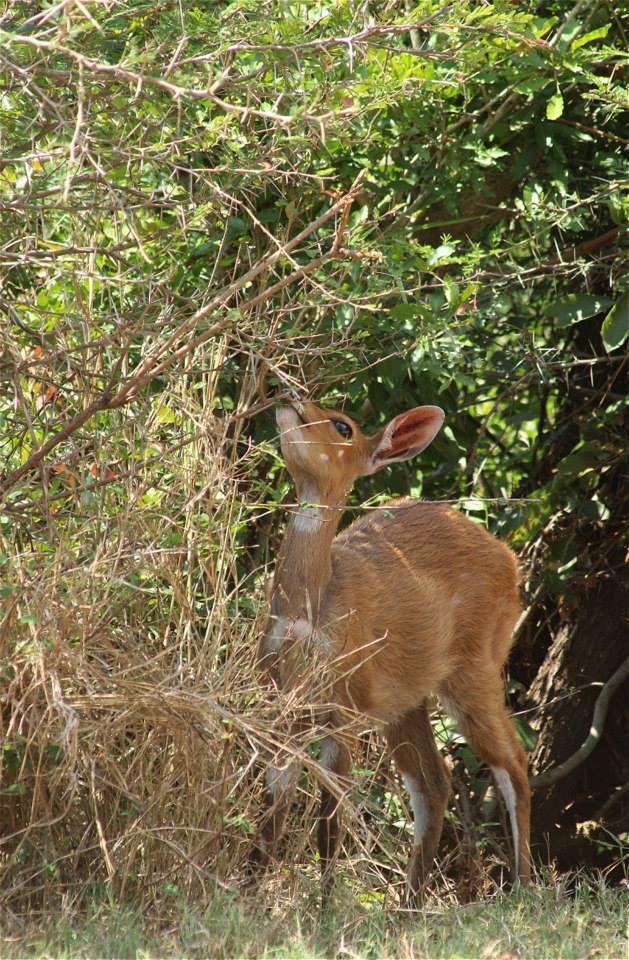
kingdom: Animalia
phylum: Chordata
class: Mammalia
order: Artiodactyla
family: Bovidae
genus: Tragelaphus
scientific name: Tragelaphus scriptus
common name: Bushbuck
